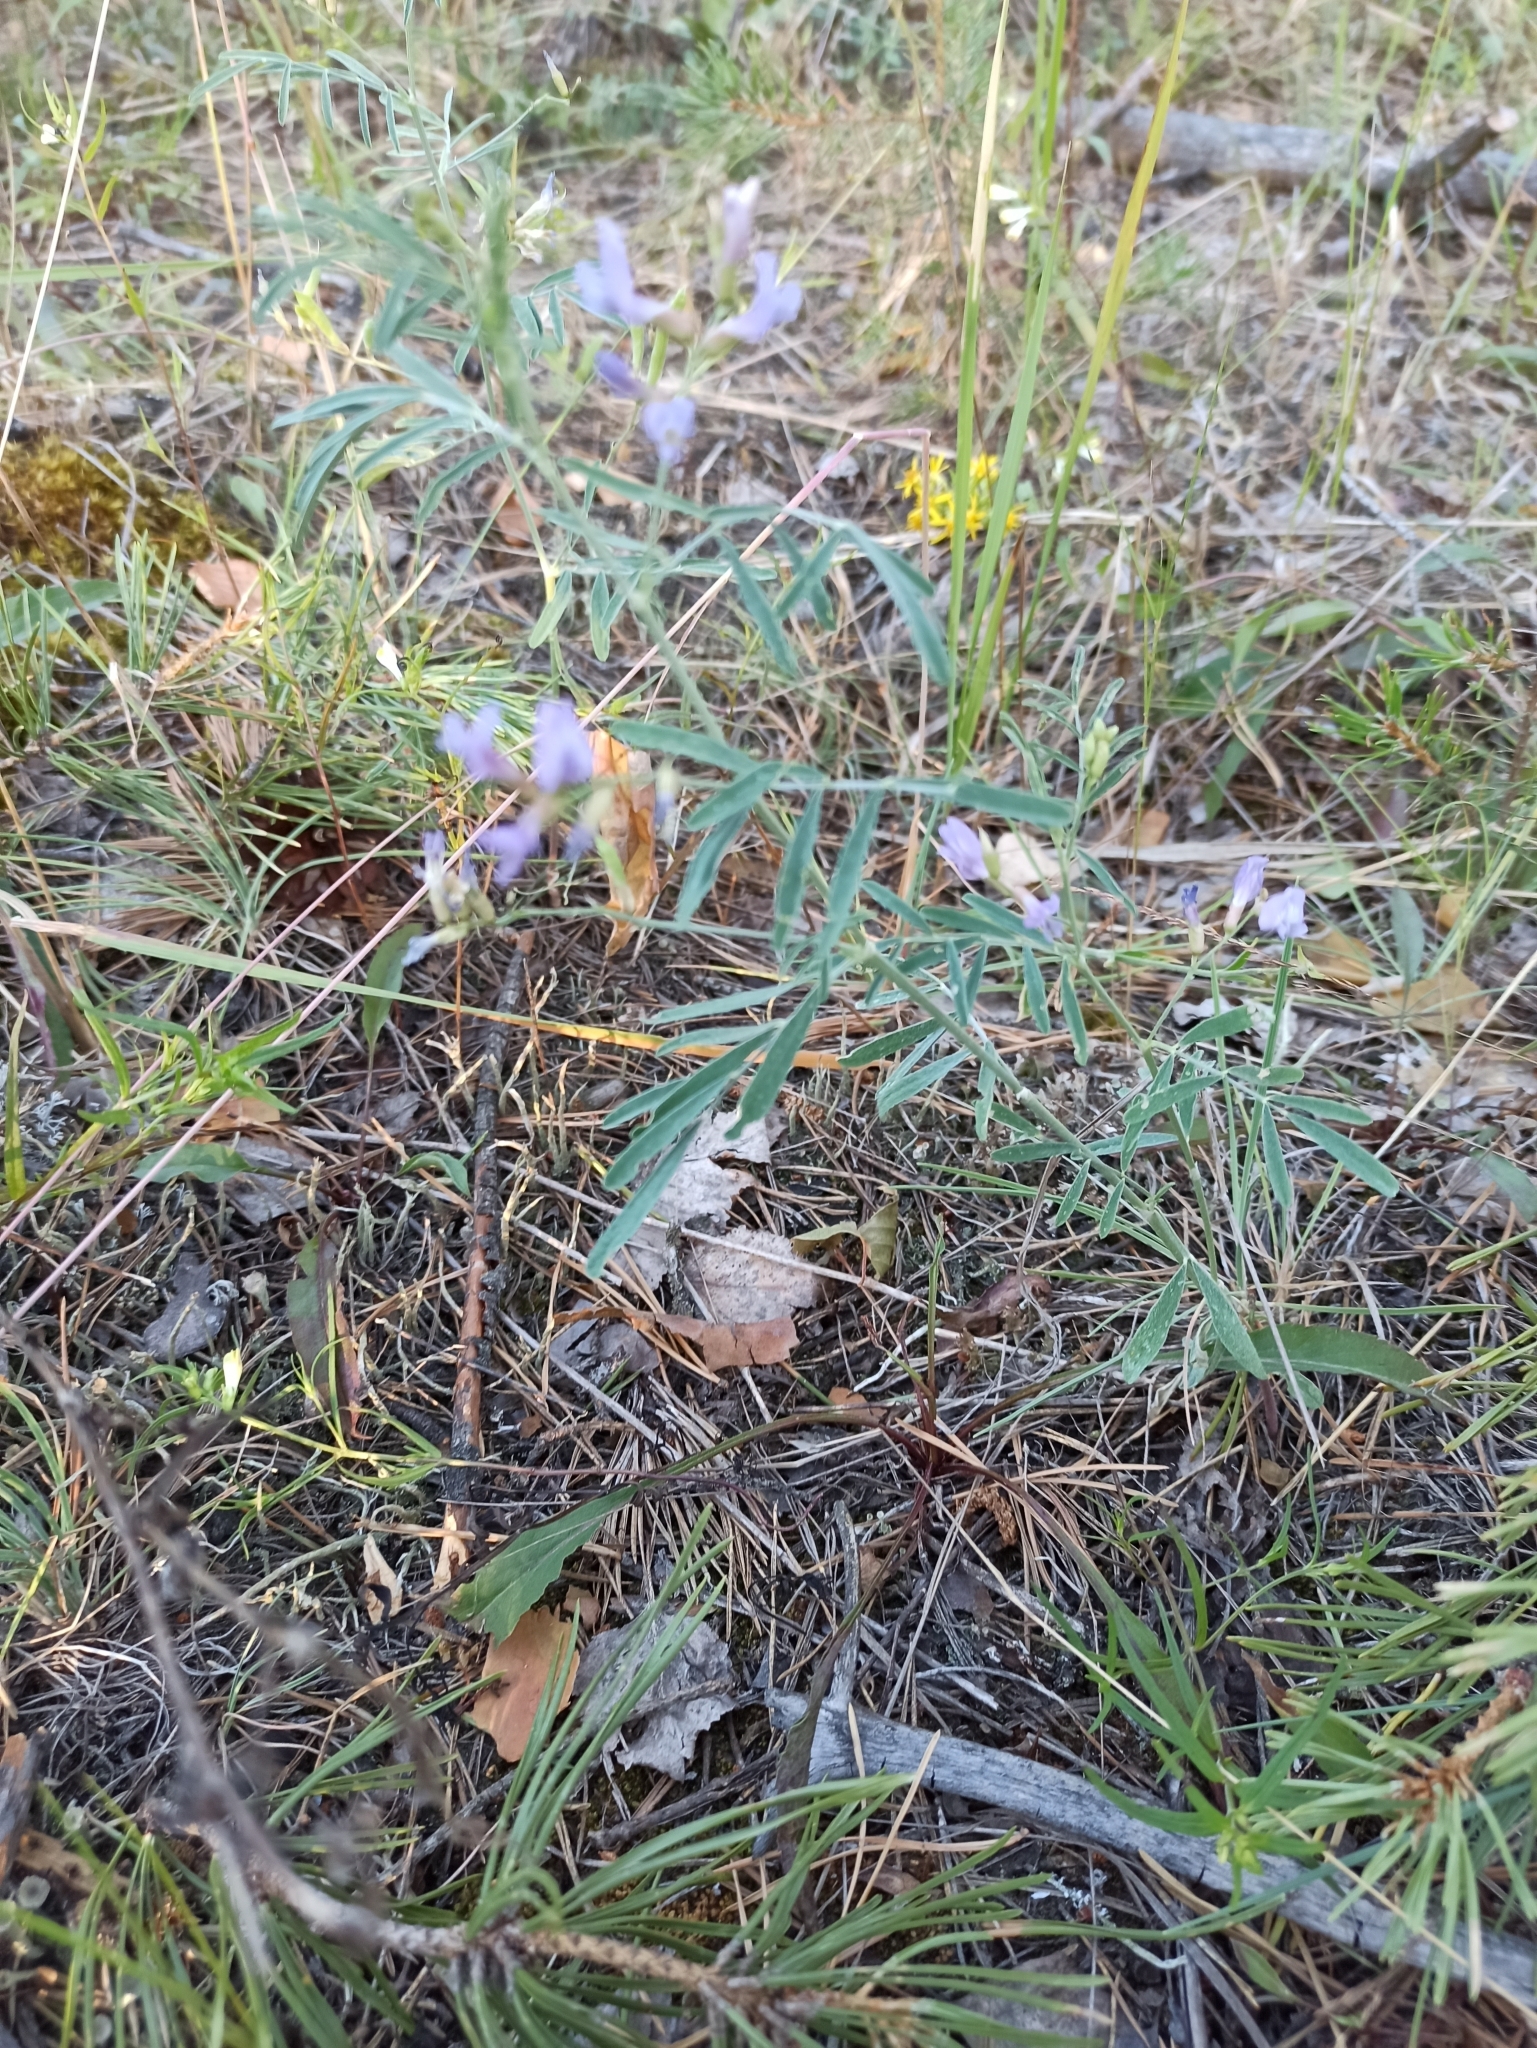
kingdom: Plantae
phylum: Tracheophyta
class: Magnoliopsida
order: Fabales
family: Fabaceae
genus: Astragalus
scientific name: Astragalus arenarius
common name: Arenarious milk-vetch
